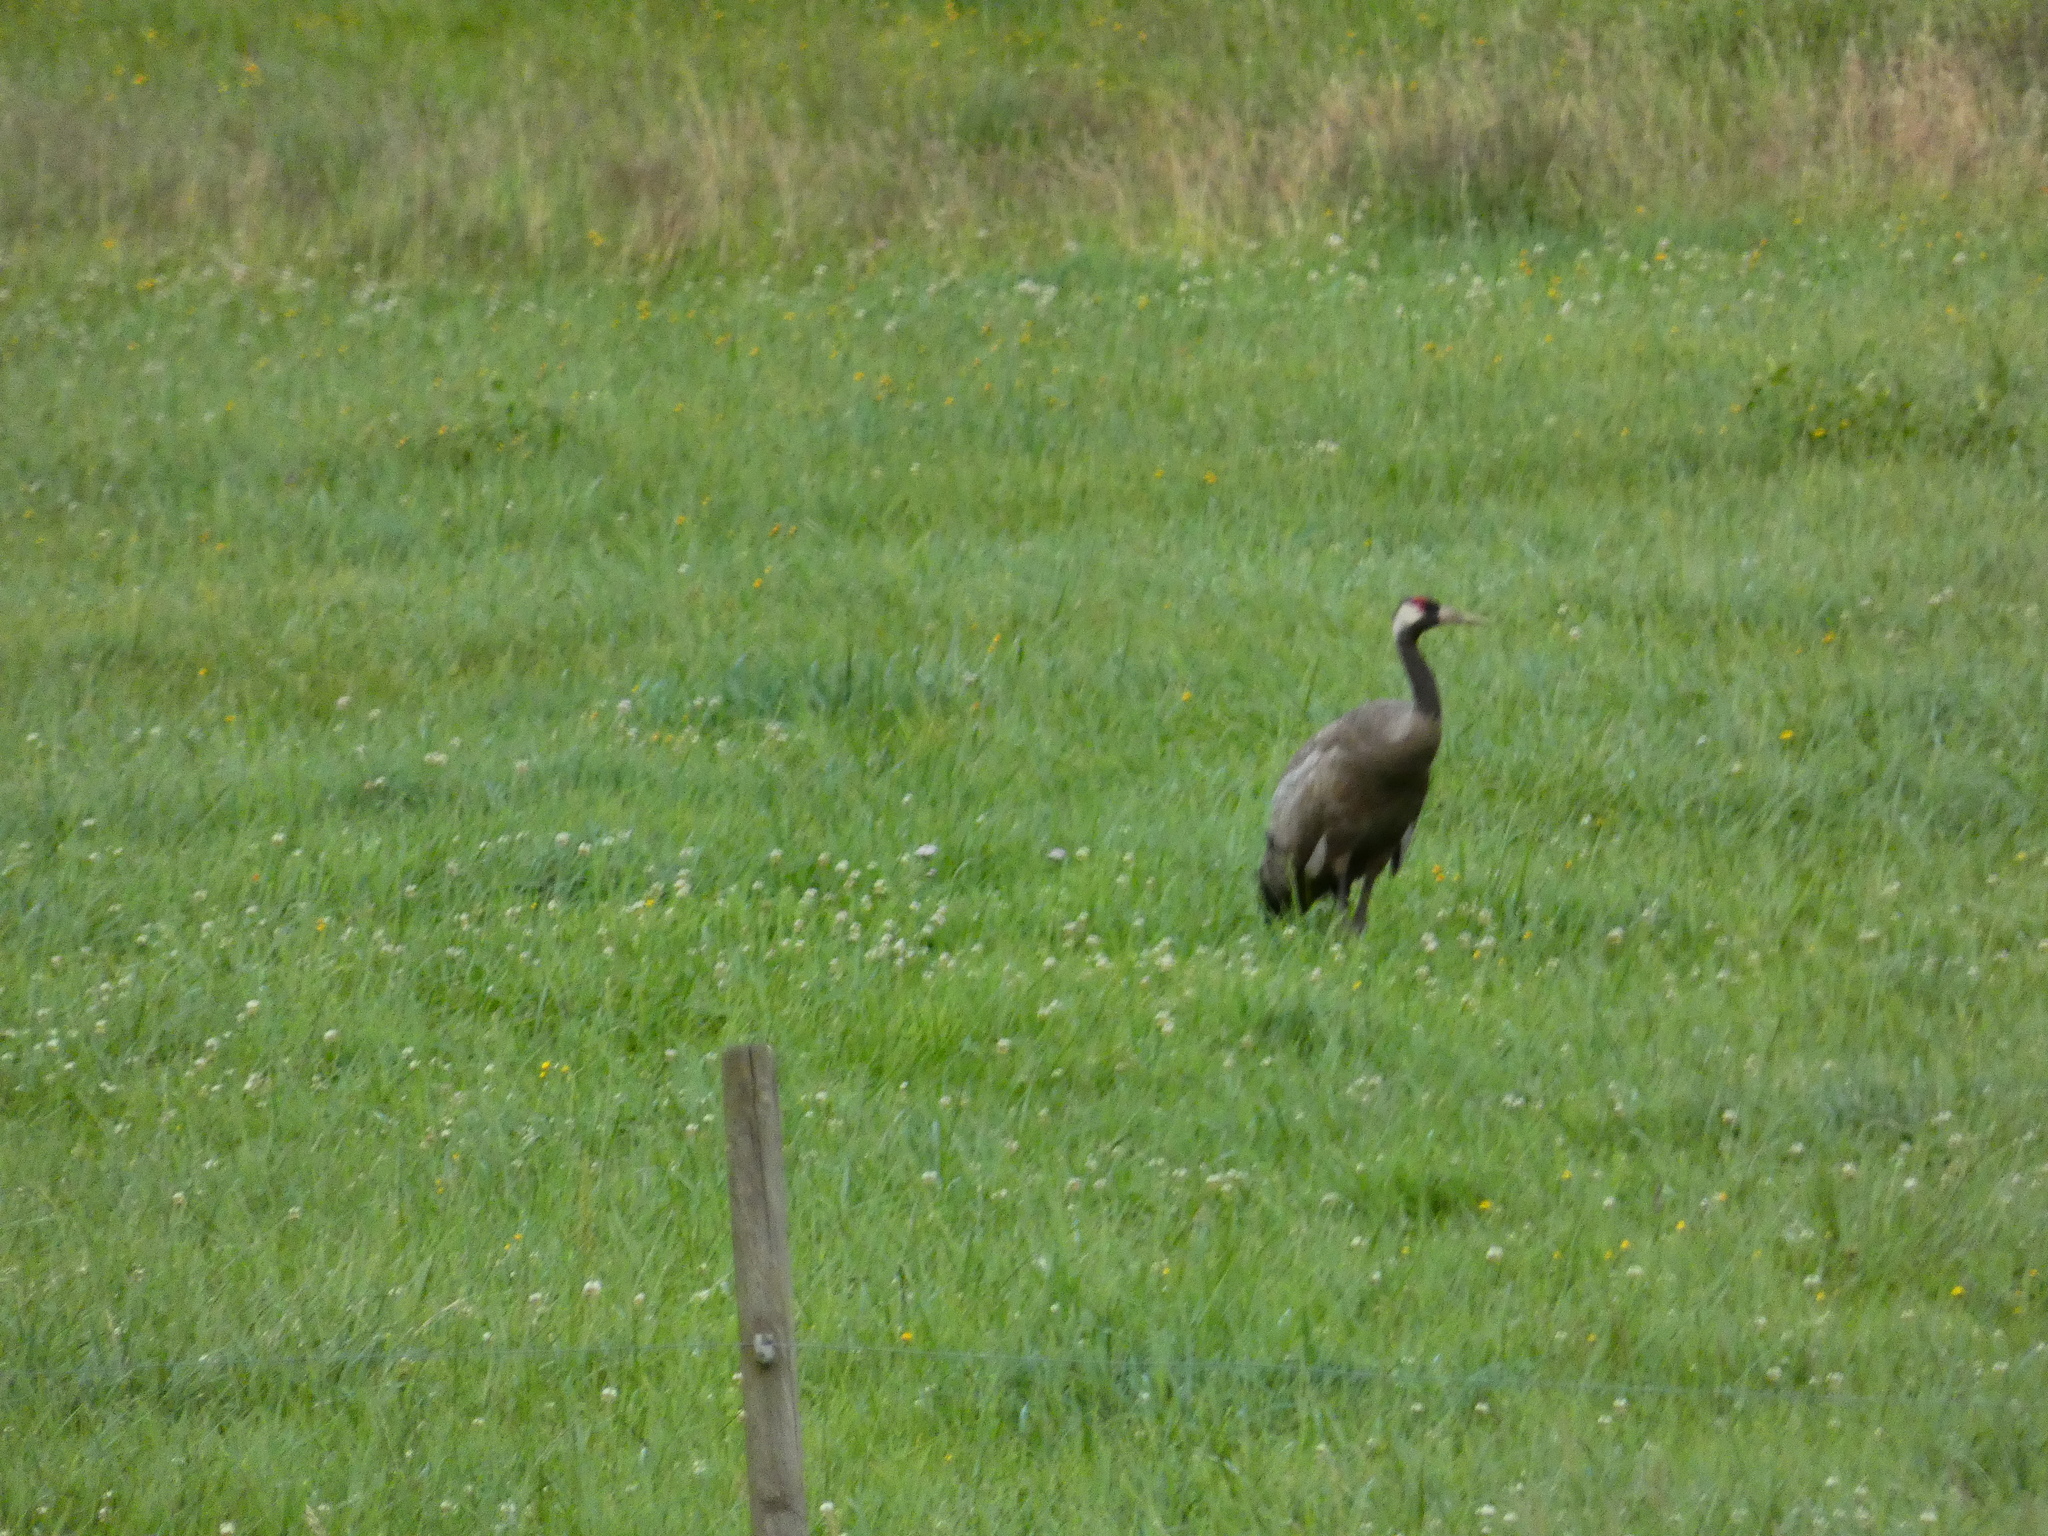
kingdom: Animalia
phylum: Chordata
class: Aves
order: Gruiformes
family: Gruidae
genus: Grus
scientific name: Grus grus
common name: Common crane
